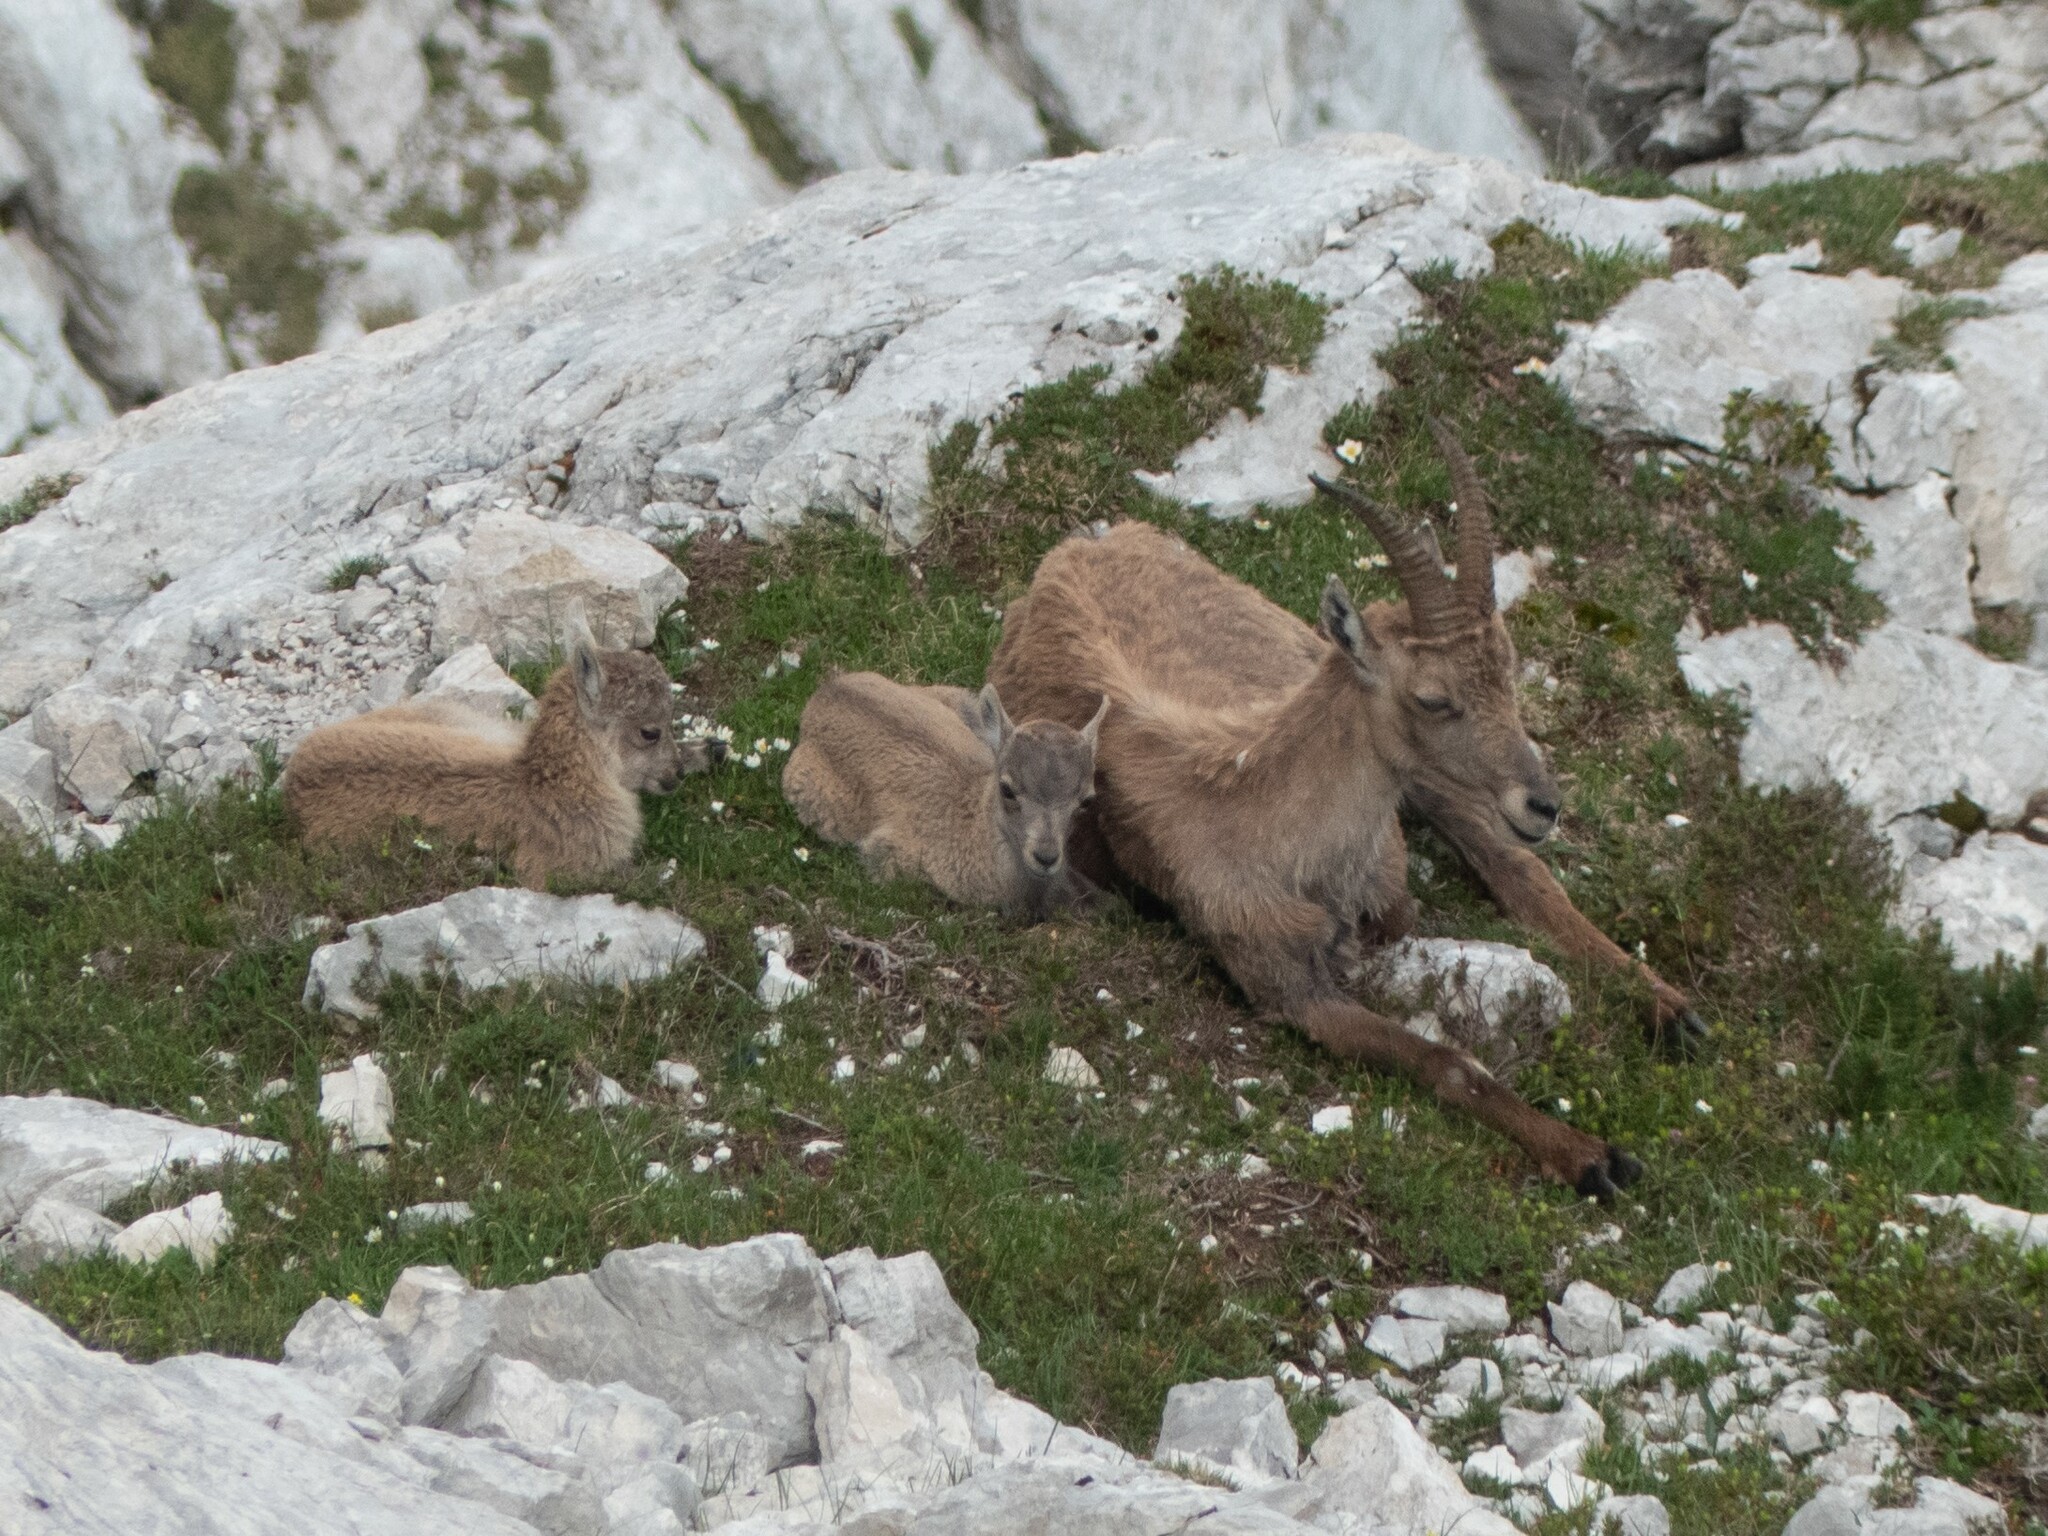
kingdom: Animalia
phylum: Chordata
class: Mammalia
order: Artiodactyla
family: Bovidae
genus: Capra
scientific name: Capra ibex
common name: Alpine ibex
